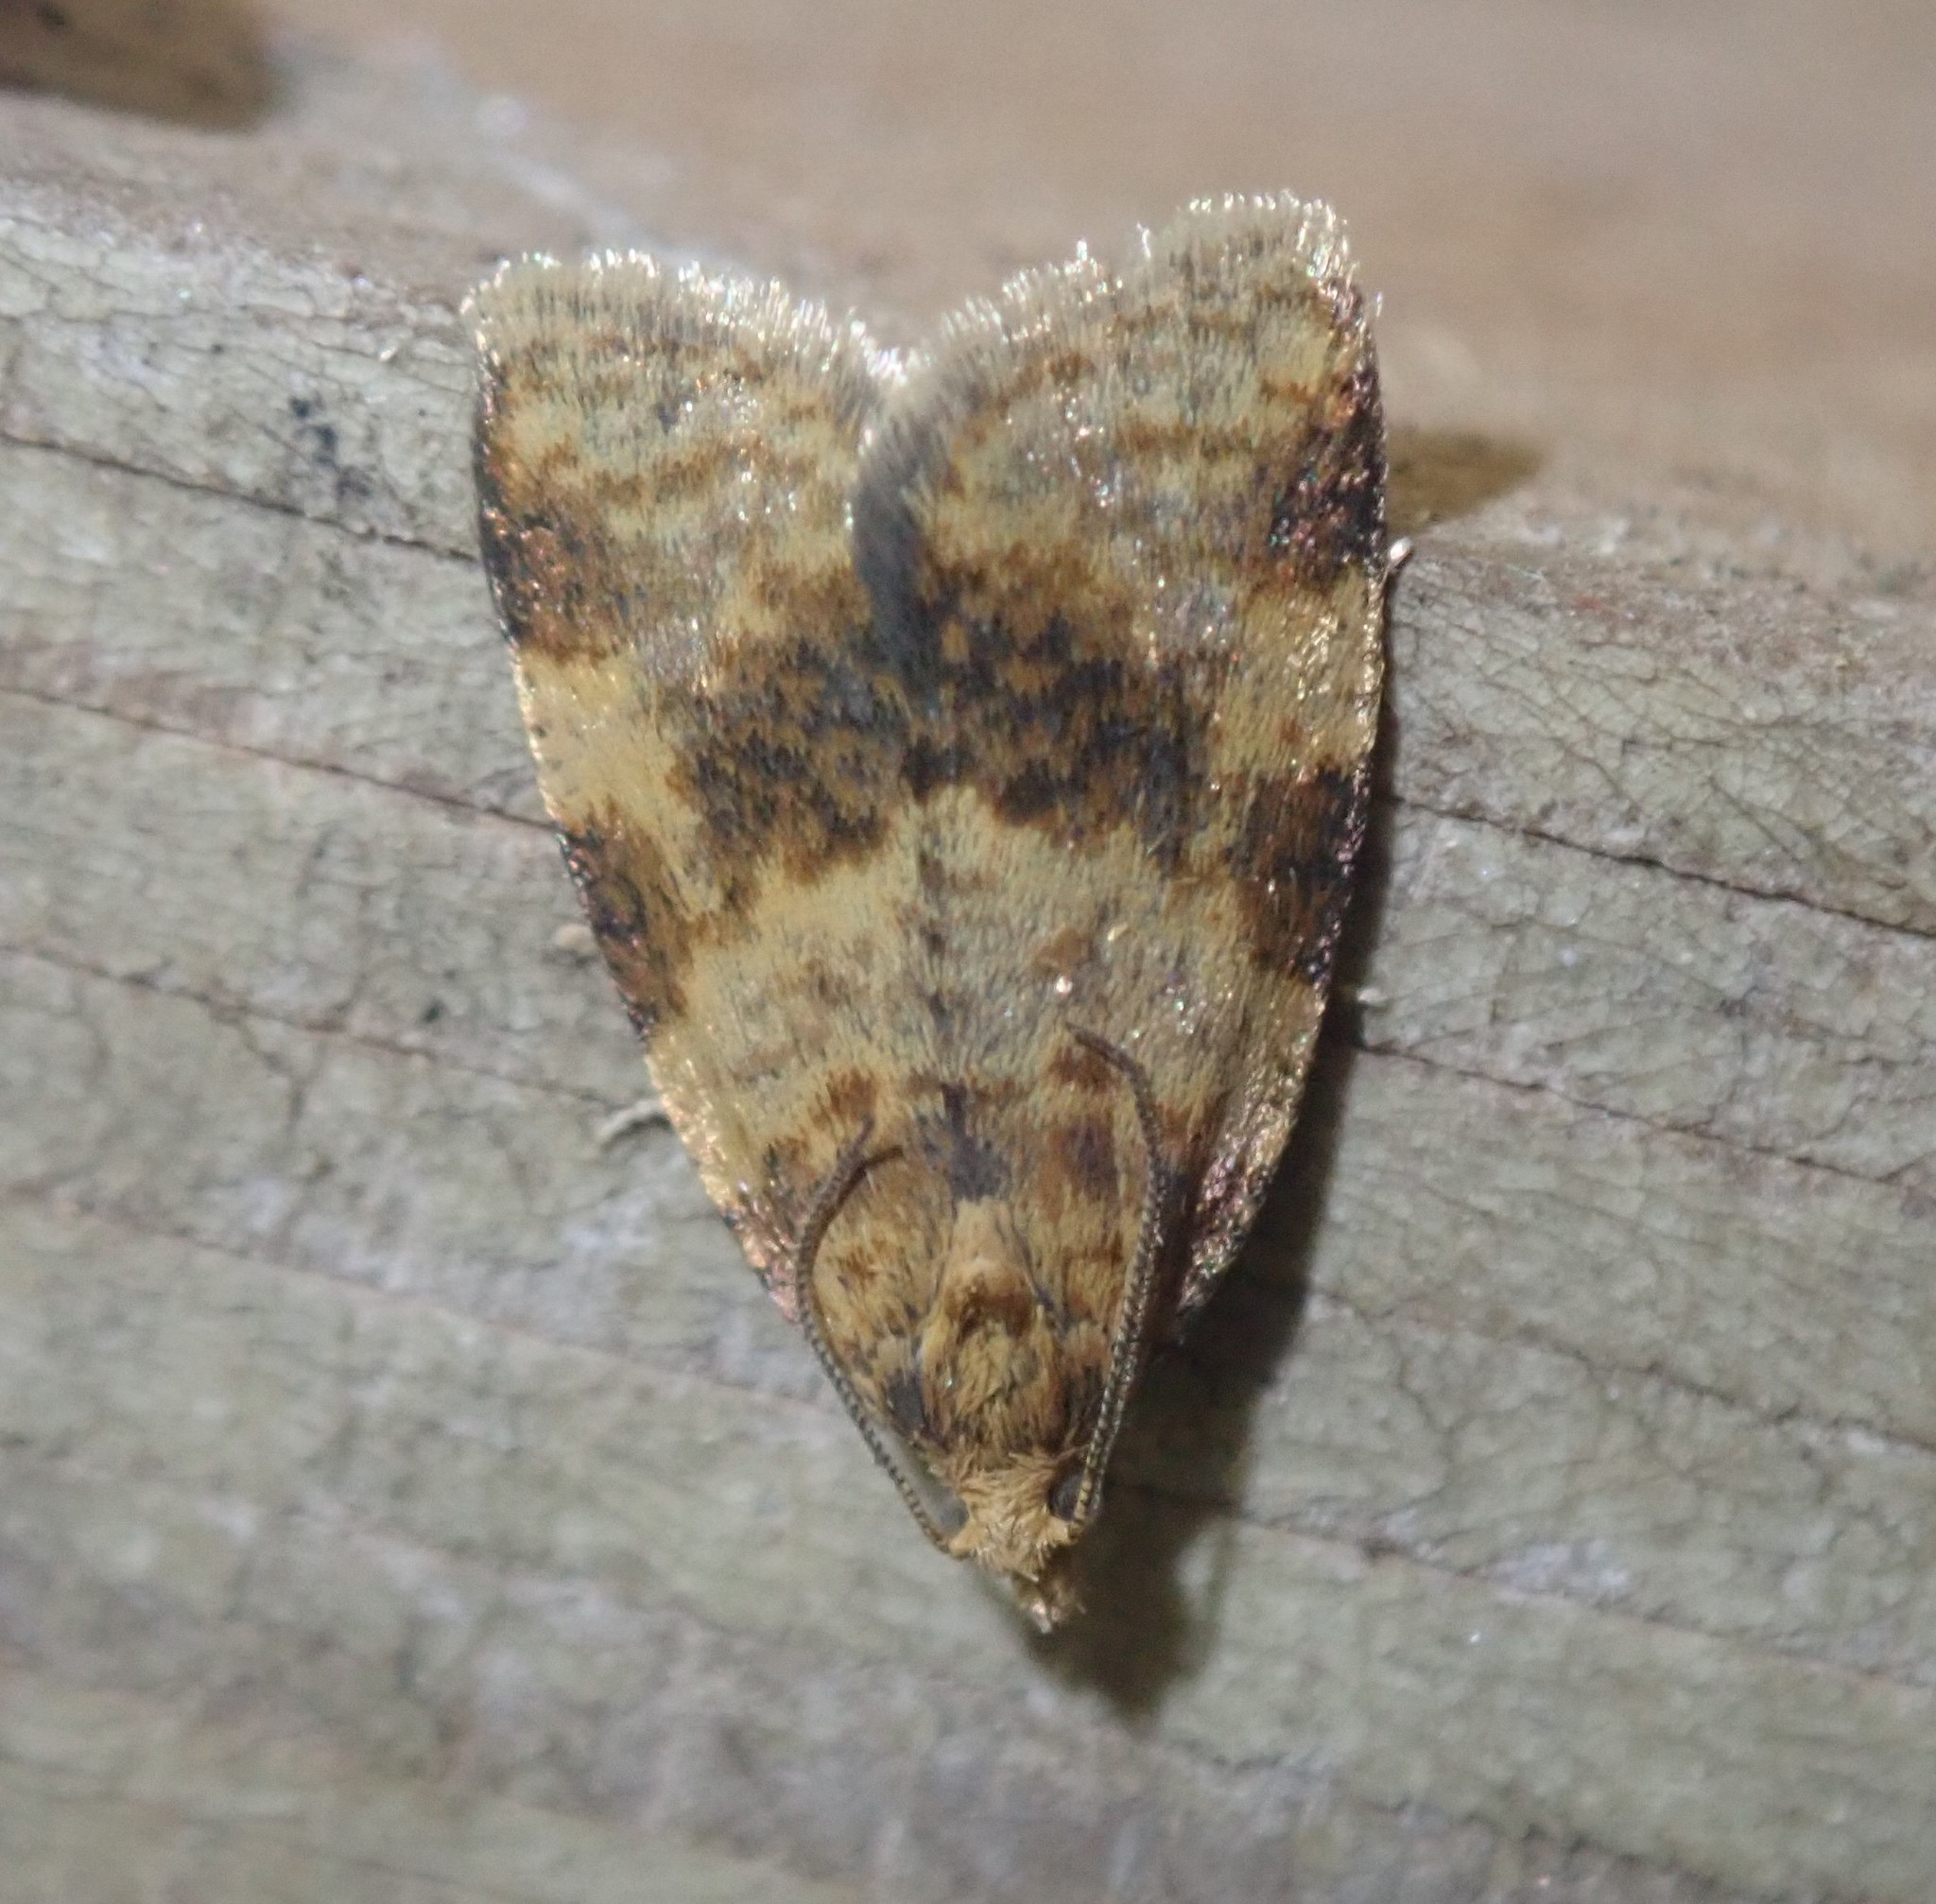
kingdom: Animalia
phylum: Arthropoda
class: Insecta
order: Lepidoptera
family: Tortricidae
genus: Epagoge
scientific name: Epagoge grotiana
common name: Brown-barred twist
